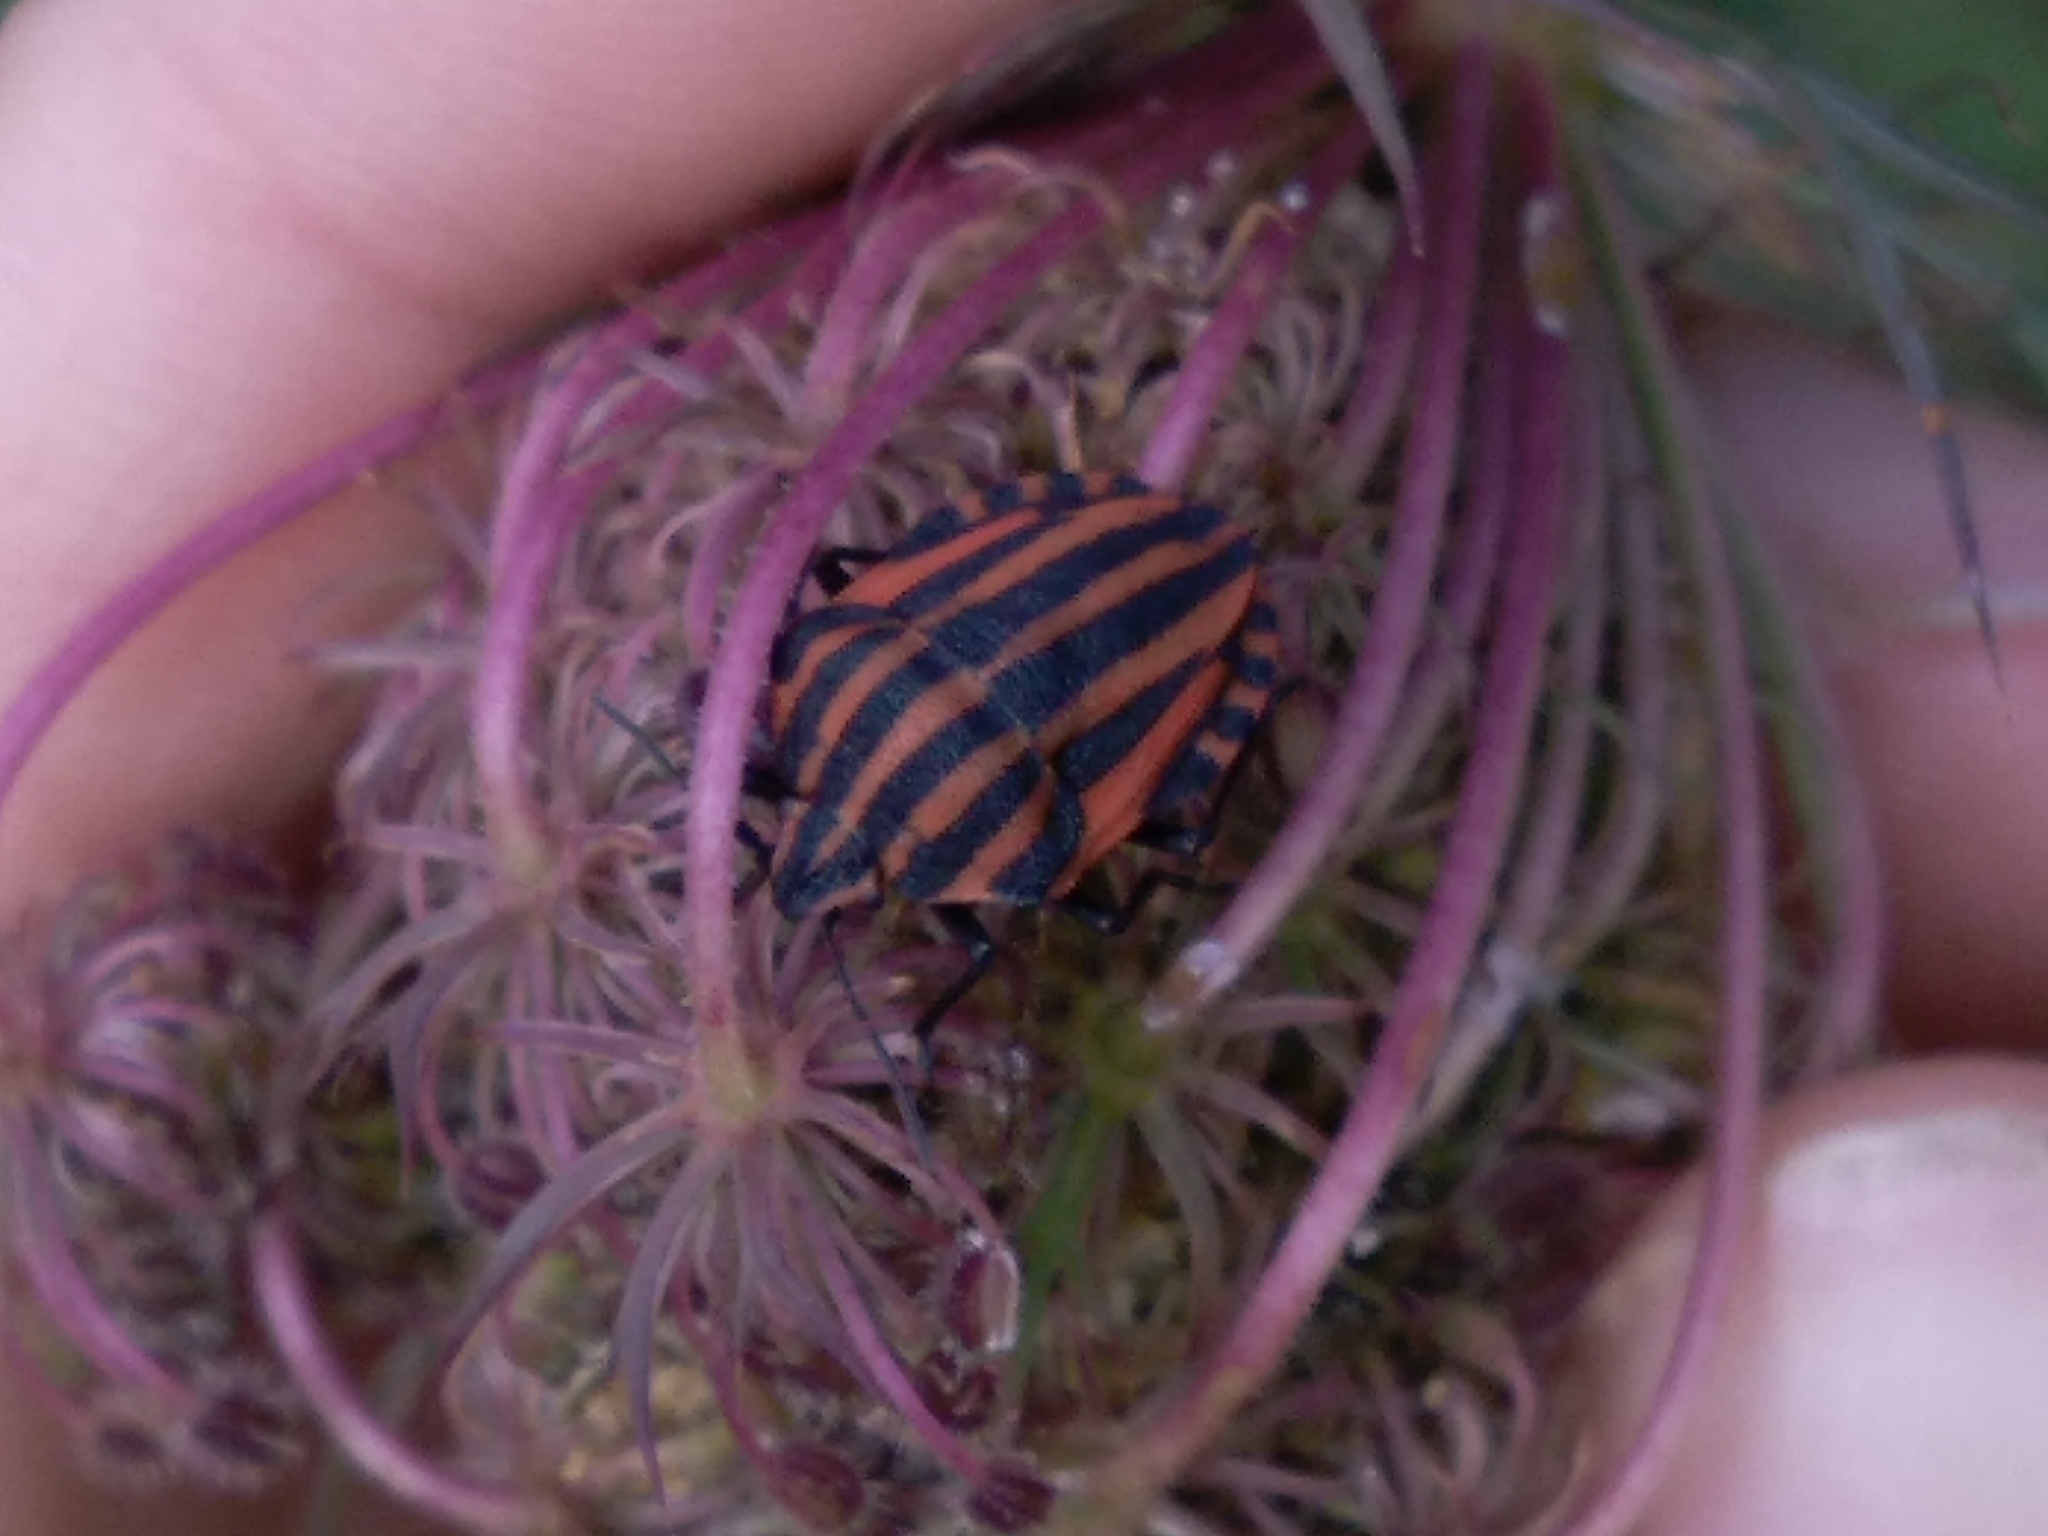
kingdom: Animalia
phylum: Arthropoda
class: Insecta
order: Hemiptera
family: Pentatomidae
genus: Graphosoma
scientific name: Graphosoma italicum
